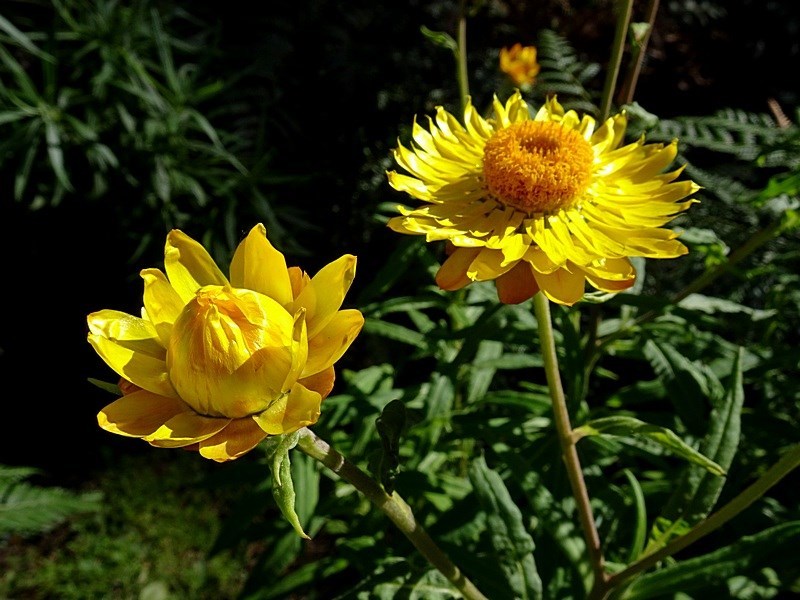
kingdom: Plantae
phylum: Tracheophyta
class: Magnoliopsida
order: Asterales
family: Asteraceae
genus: Xerochrysum
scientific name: Xerochrysum bracteatum
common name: Bracted strawflower
